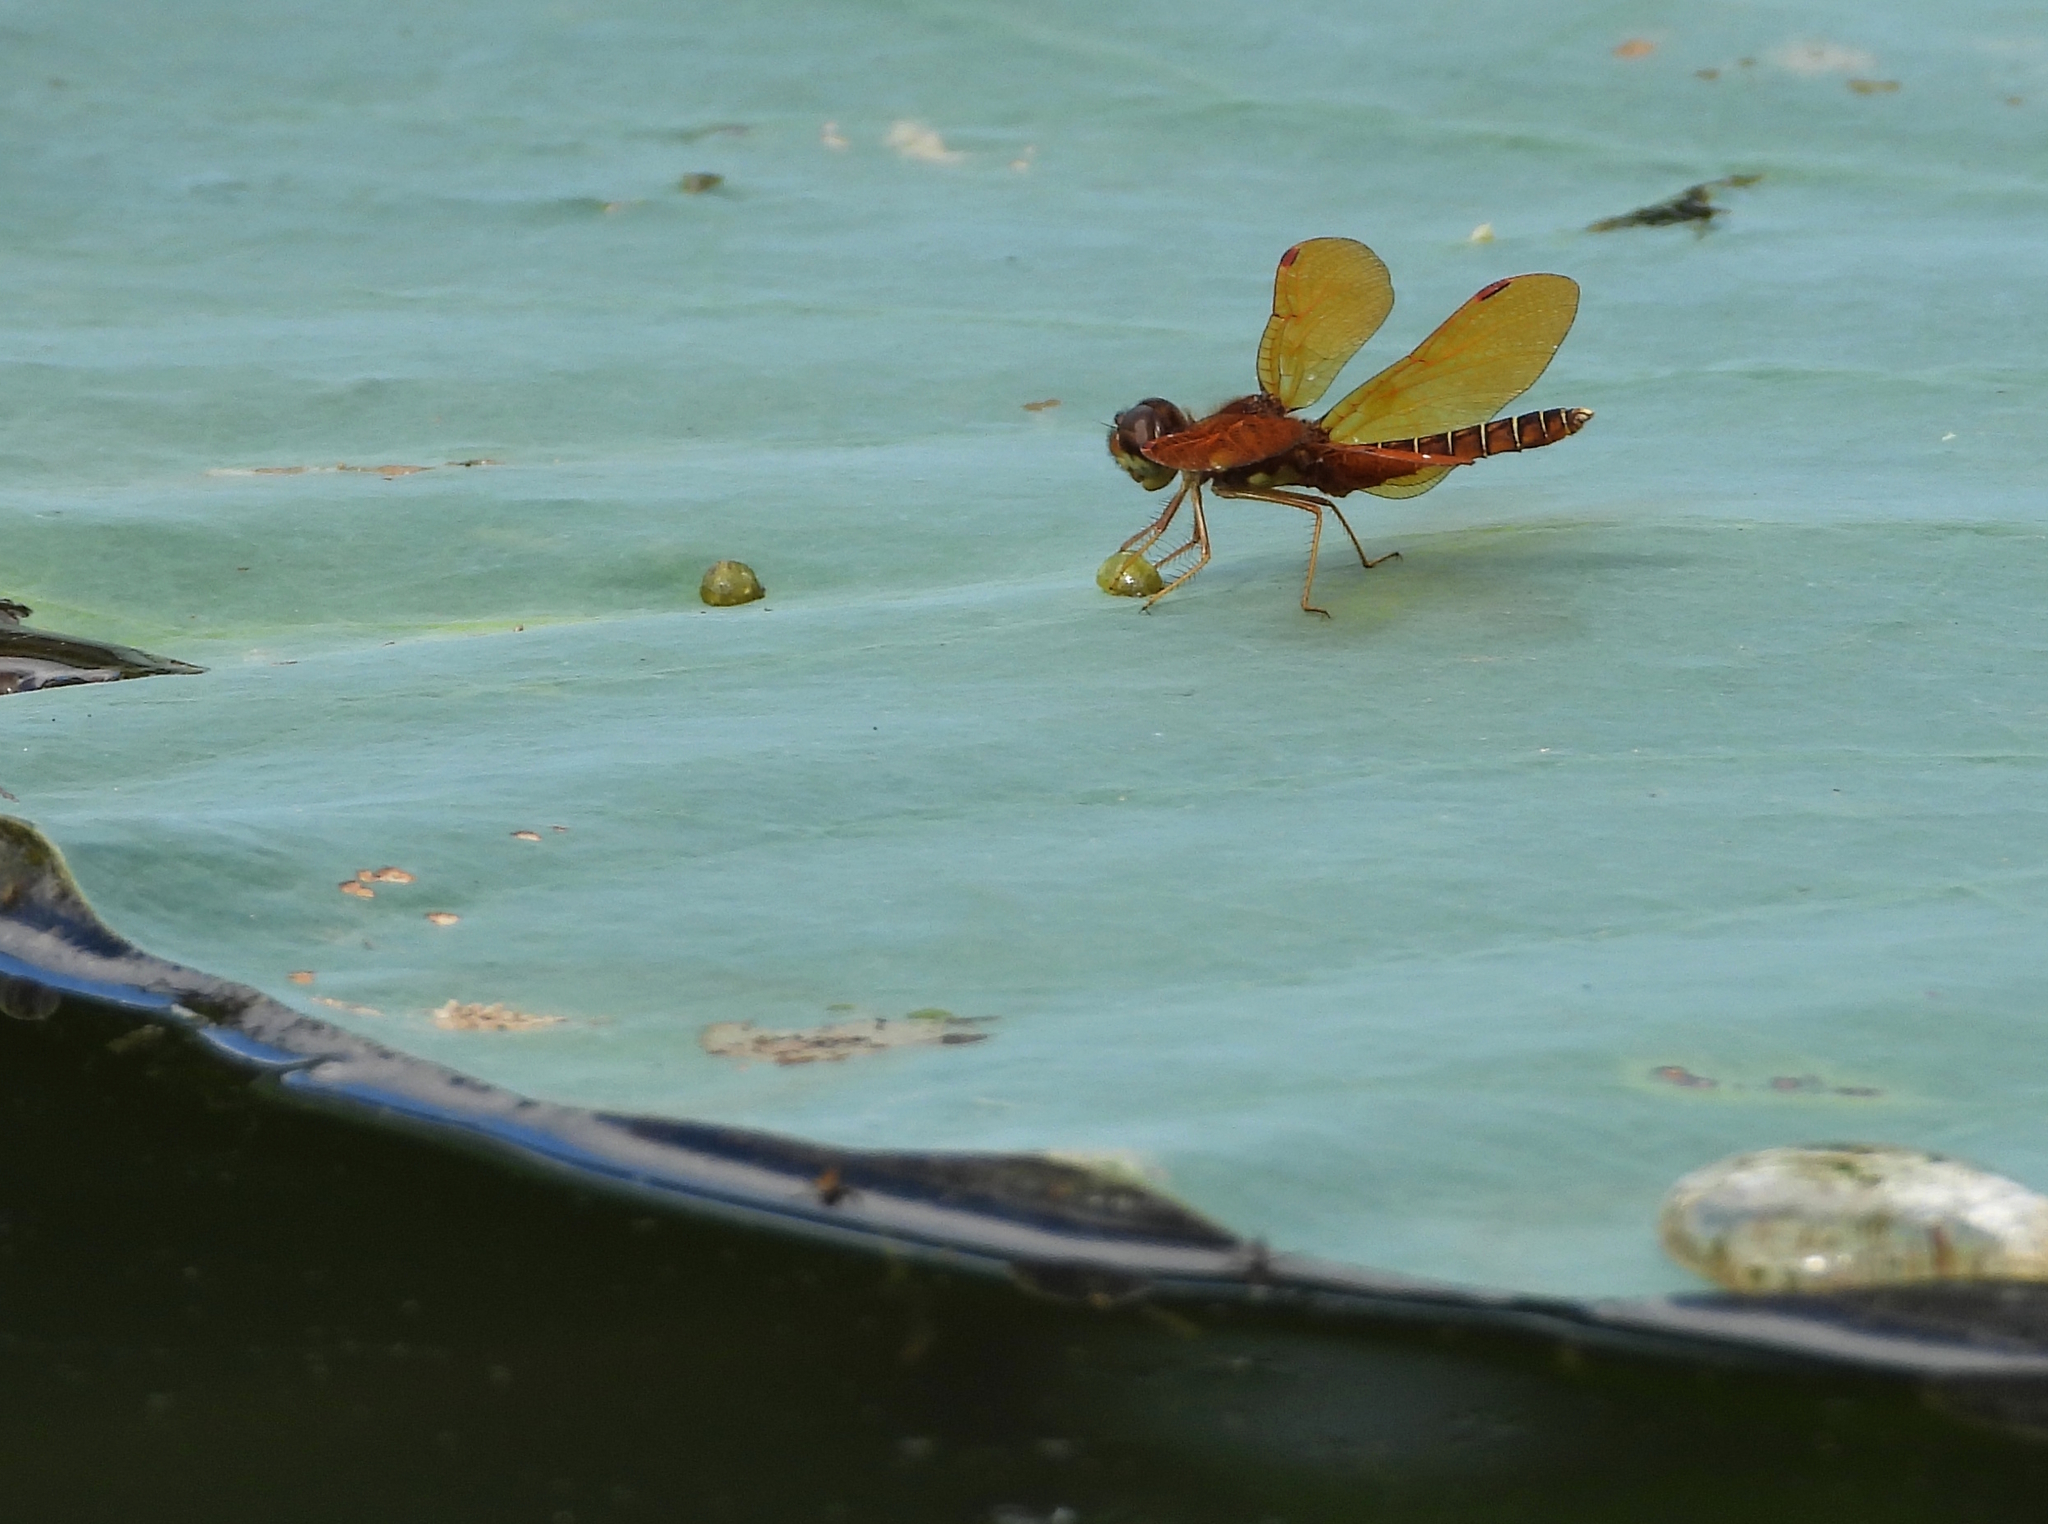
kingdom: Animalia
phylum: Arthropoda
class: Insecta
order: Odonata
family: Libellulidae
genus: Perithemis
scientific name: Perithemis tenera
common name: Eastern amberwing
